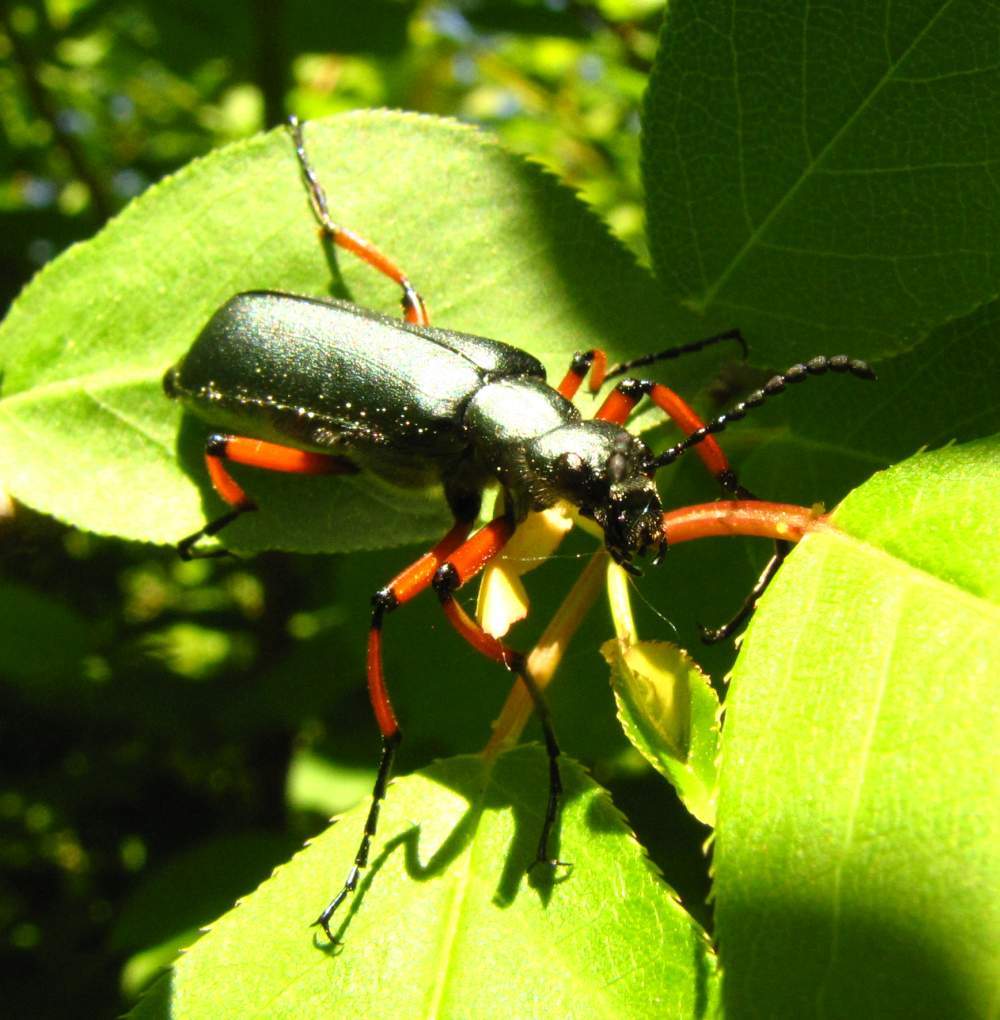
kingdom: Animalia
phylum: Arthropoda
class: Insecta
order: Coleoptera
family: Meloidae
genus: Lytta
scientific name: Lytta sayi
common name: Say's blister beetle
